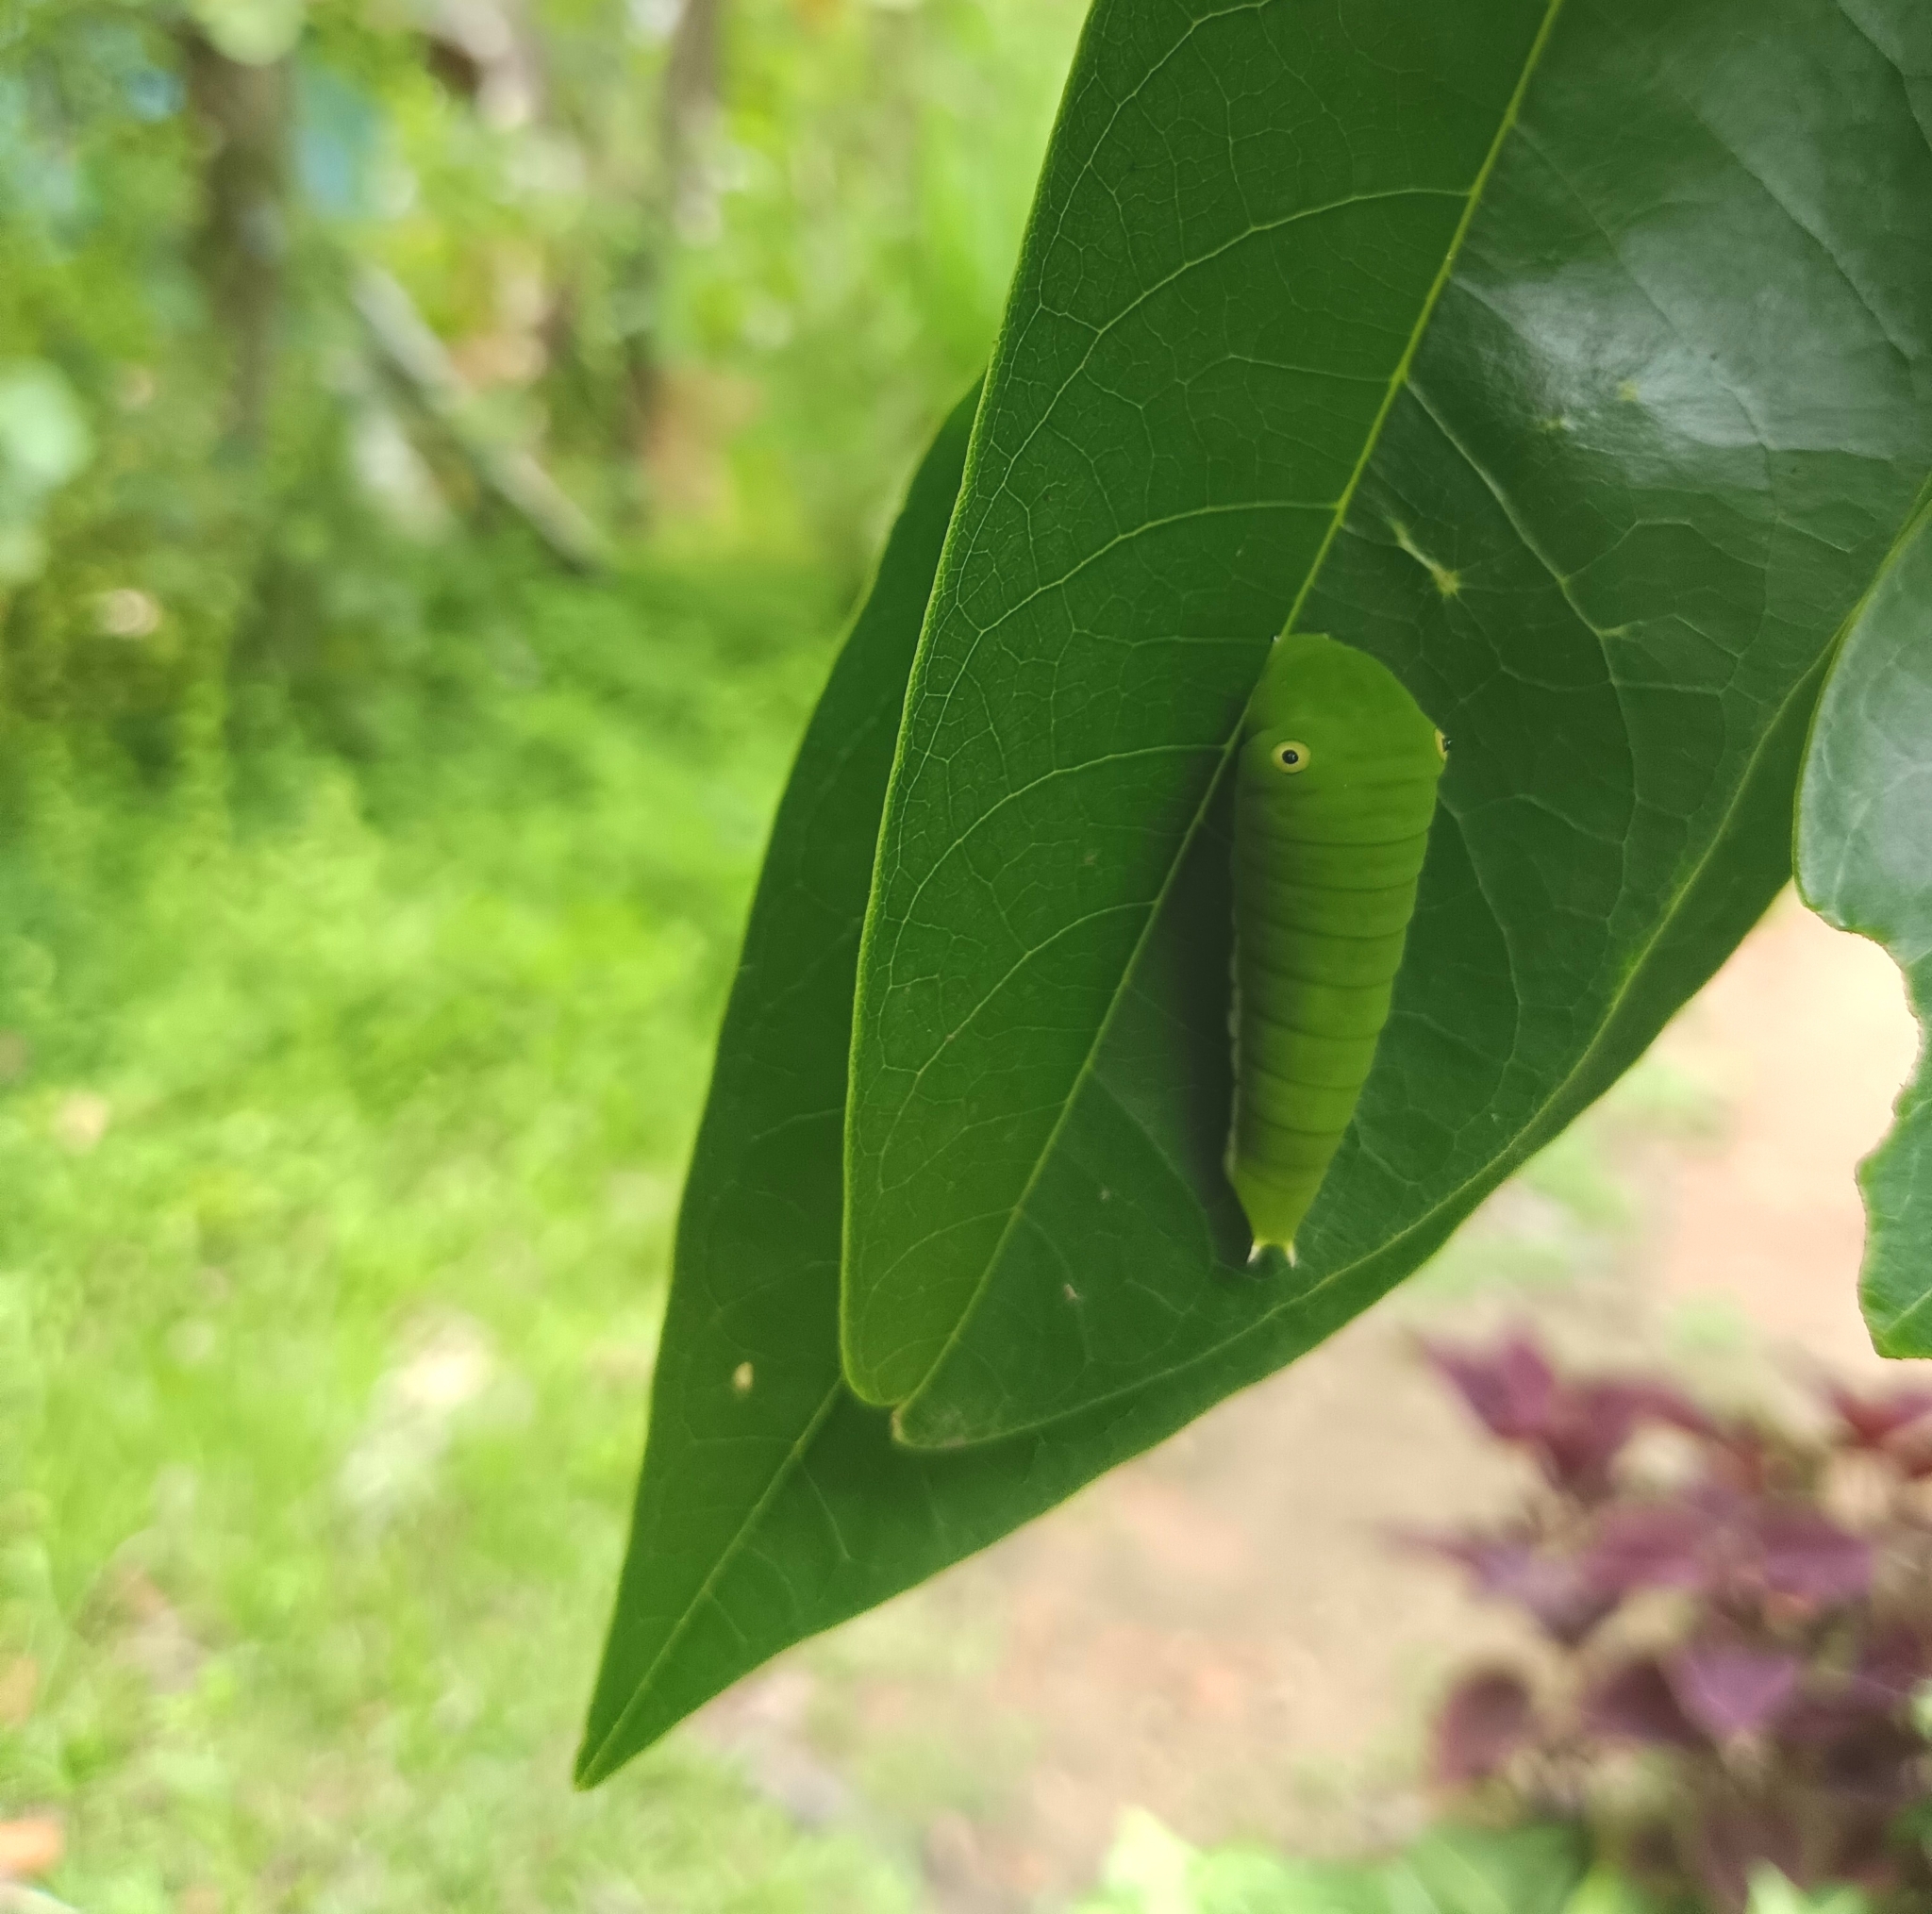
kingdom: Animalia
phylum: Arthropoda
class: Insecta
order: Lepidoptera
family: Papilionidae
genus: Graphium
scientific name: Graphium doson
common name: Common jay
